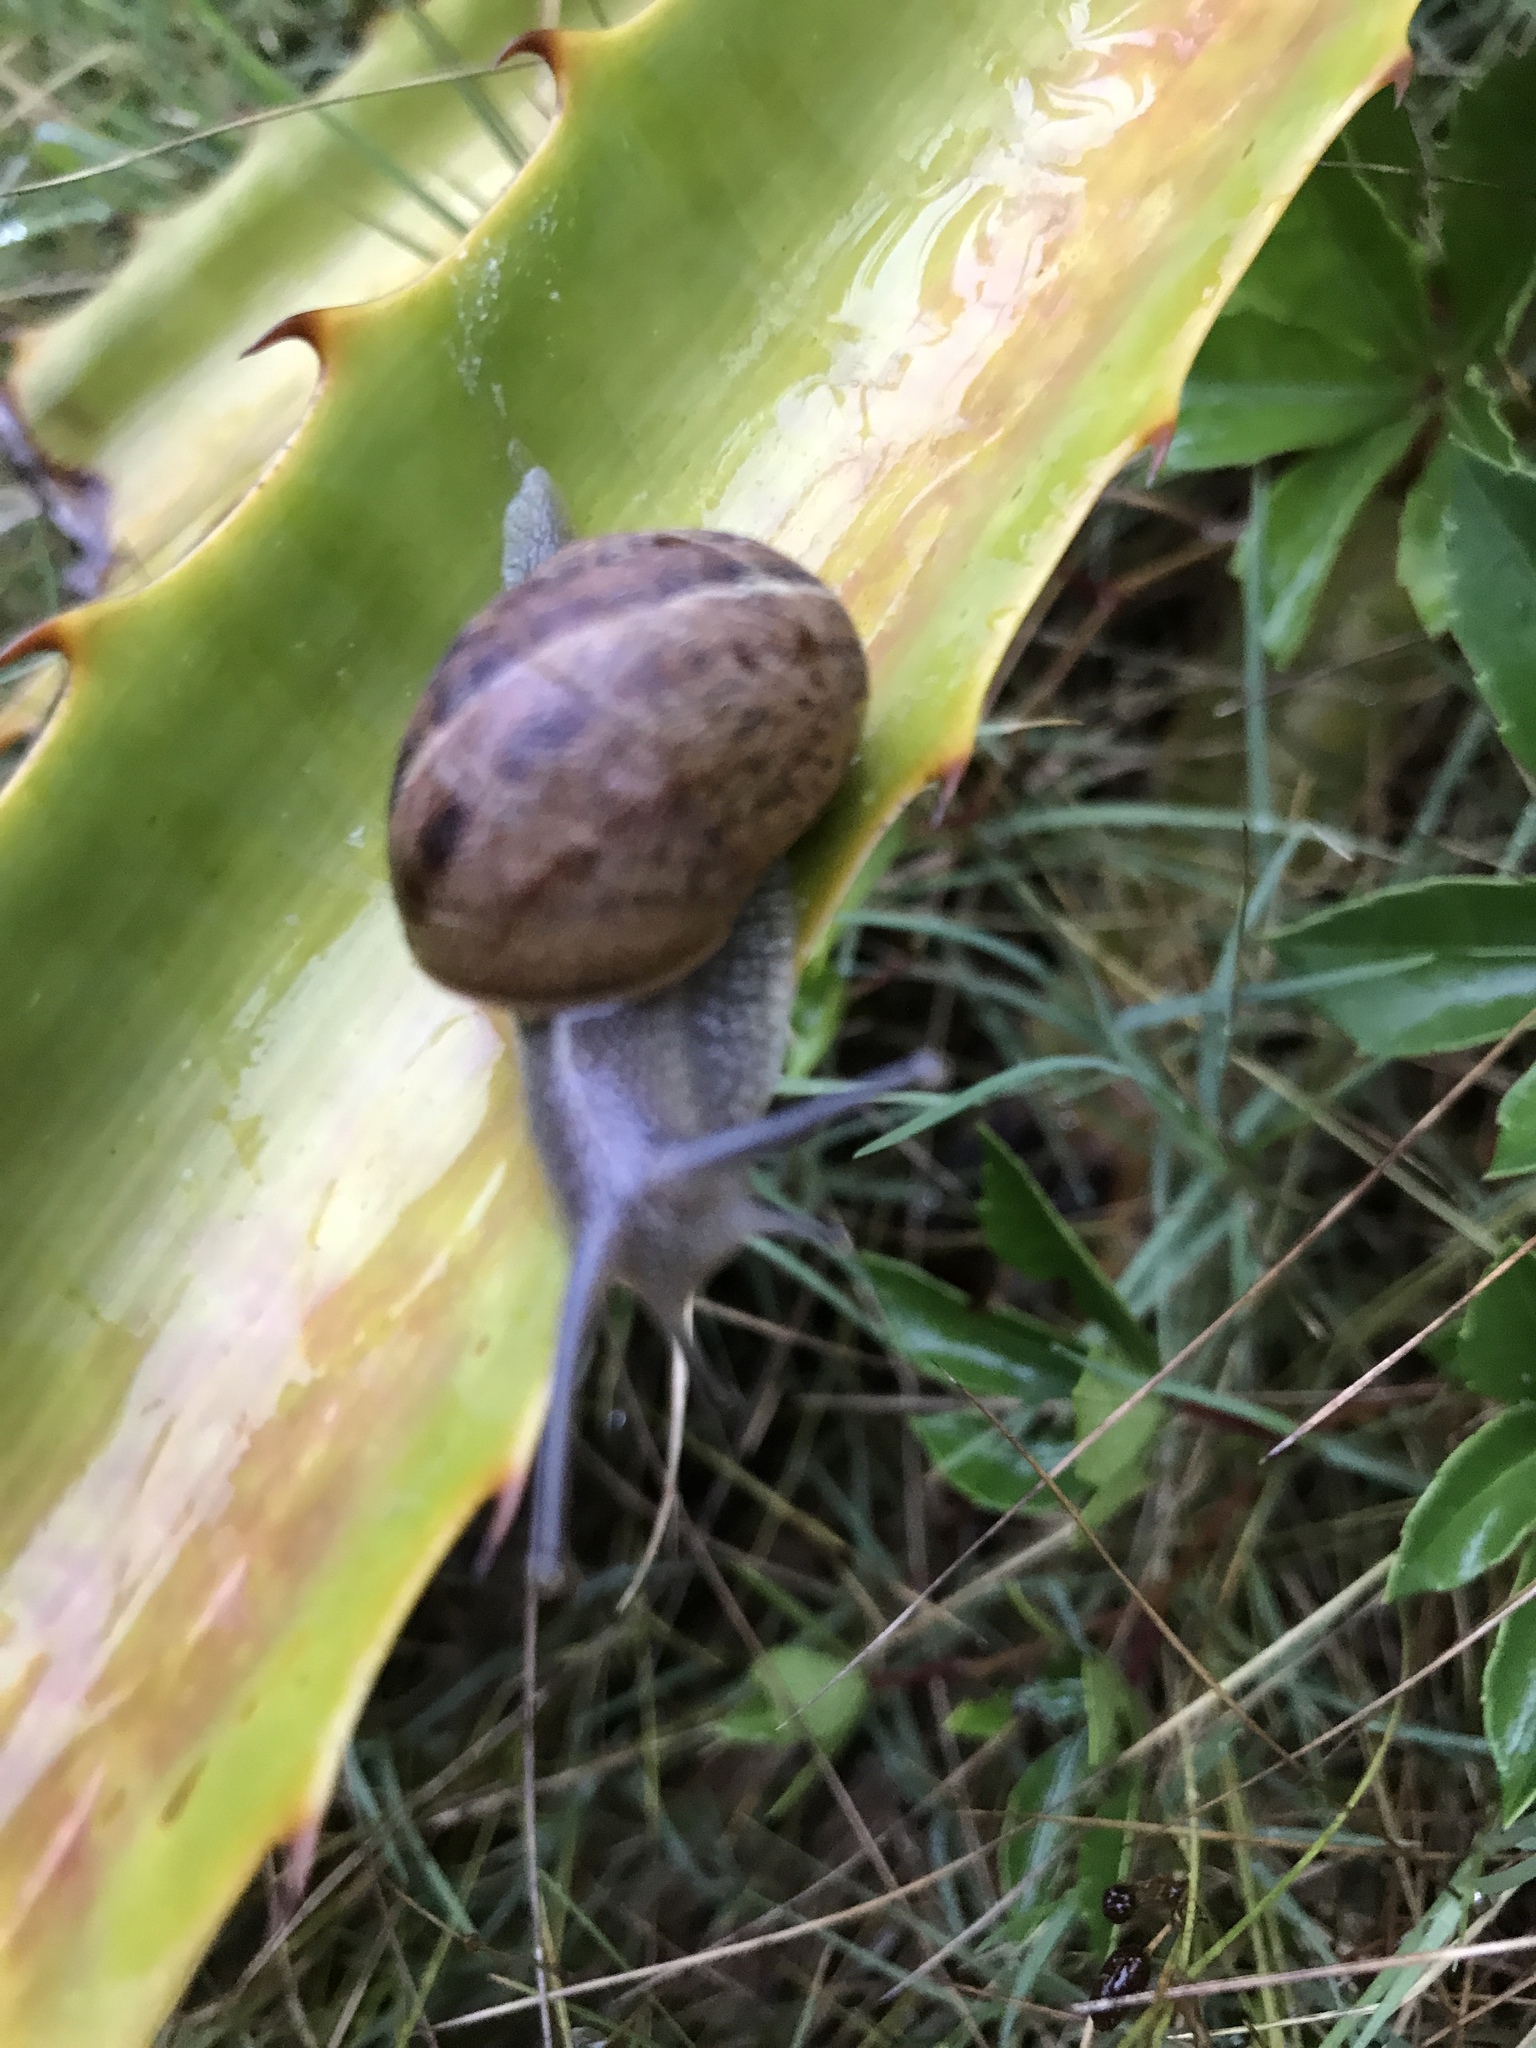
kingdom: Animalia
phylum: Mollusca
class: Gastropoda
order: Stylommatophora
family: Helicidae
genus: Cornu
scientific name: Cornu aspersum
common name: Brown garden snail
